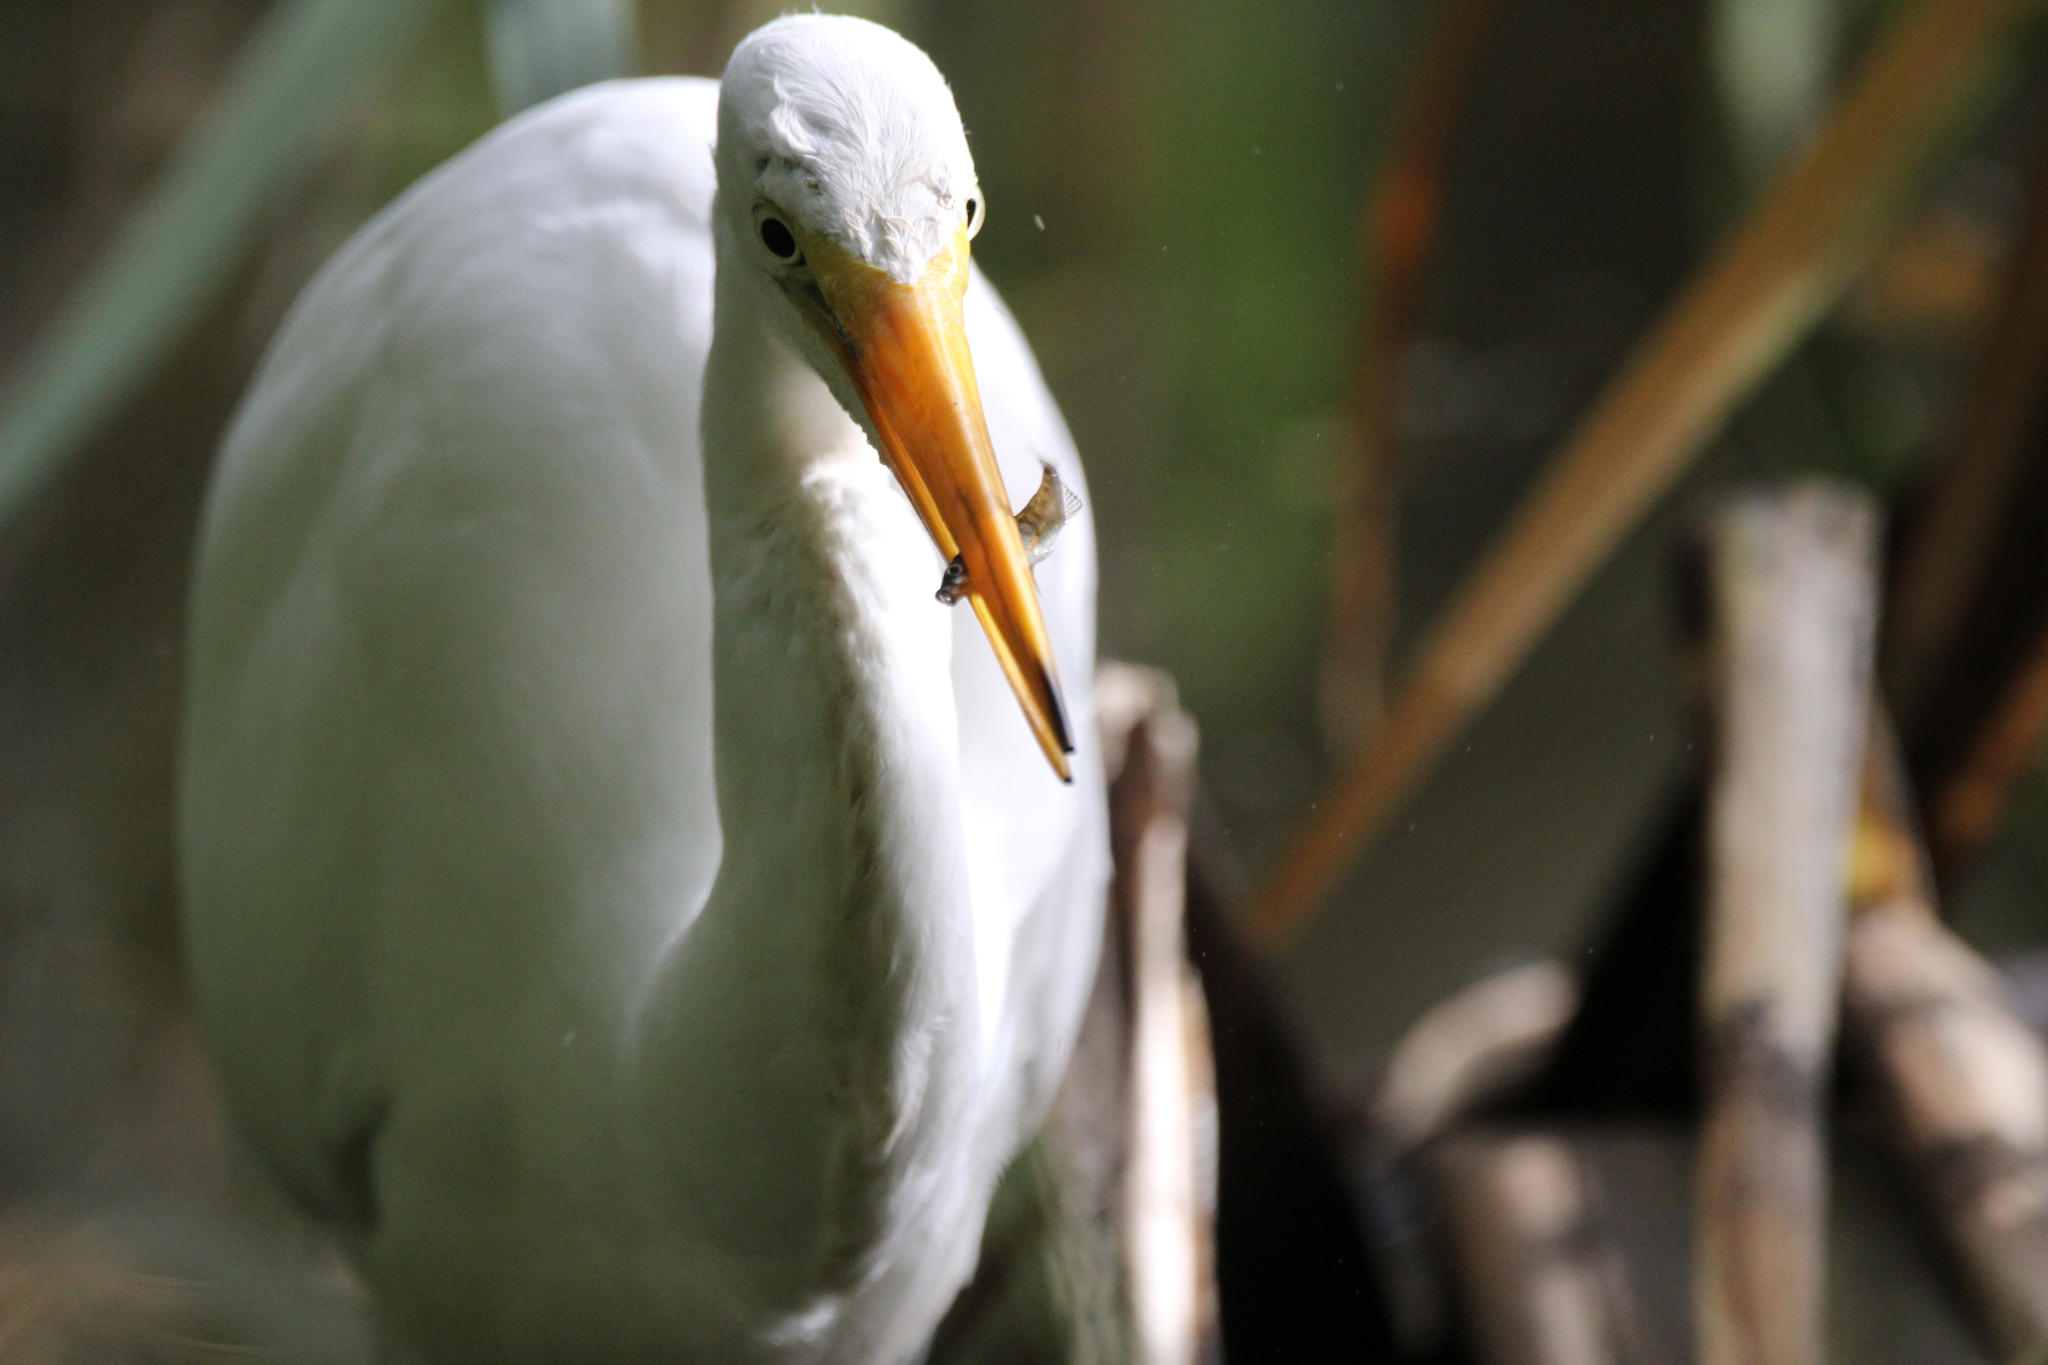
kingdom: Animalia
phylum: Chordata
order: Gasterosteiformes
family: Gasterosteidae
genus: Gasterosteus
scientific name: Gasterosteus aculeatus
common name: Three-spined stickleback
